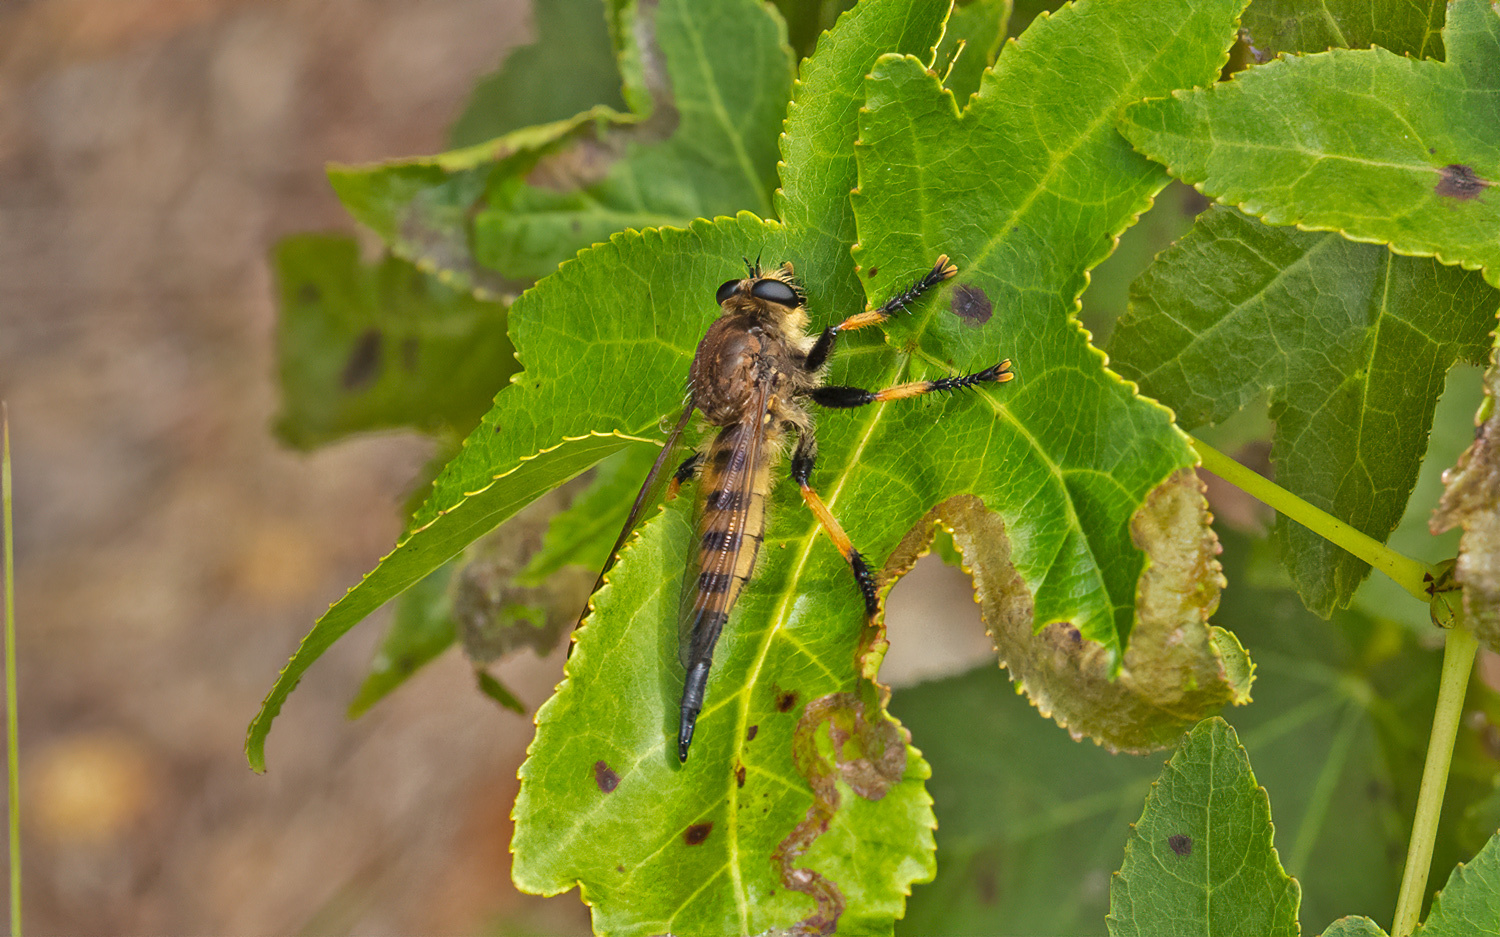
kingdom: Animalia
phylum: Arthropoda
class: Insecta
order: Diptera
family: Asilidae
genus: Promachus
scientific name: Promachus rufipes
